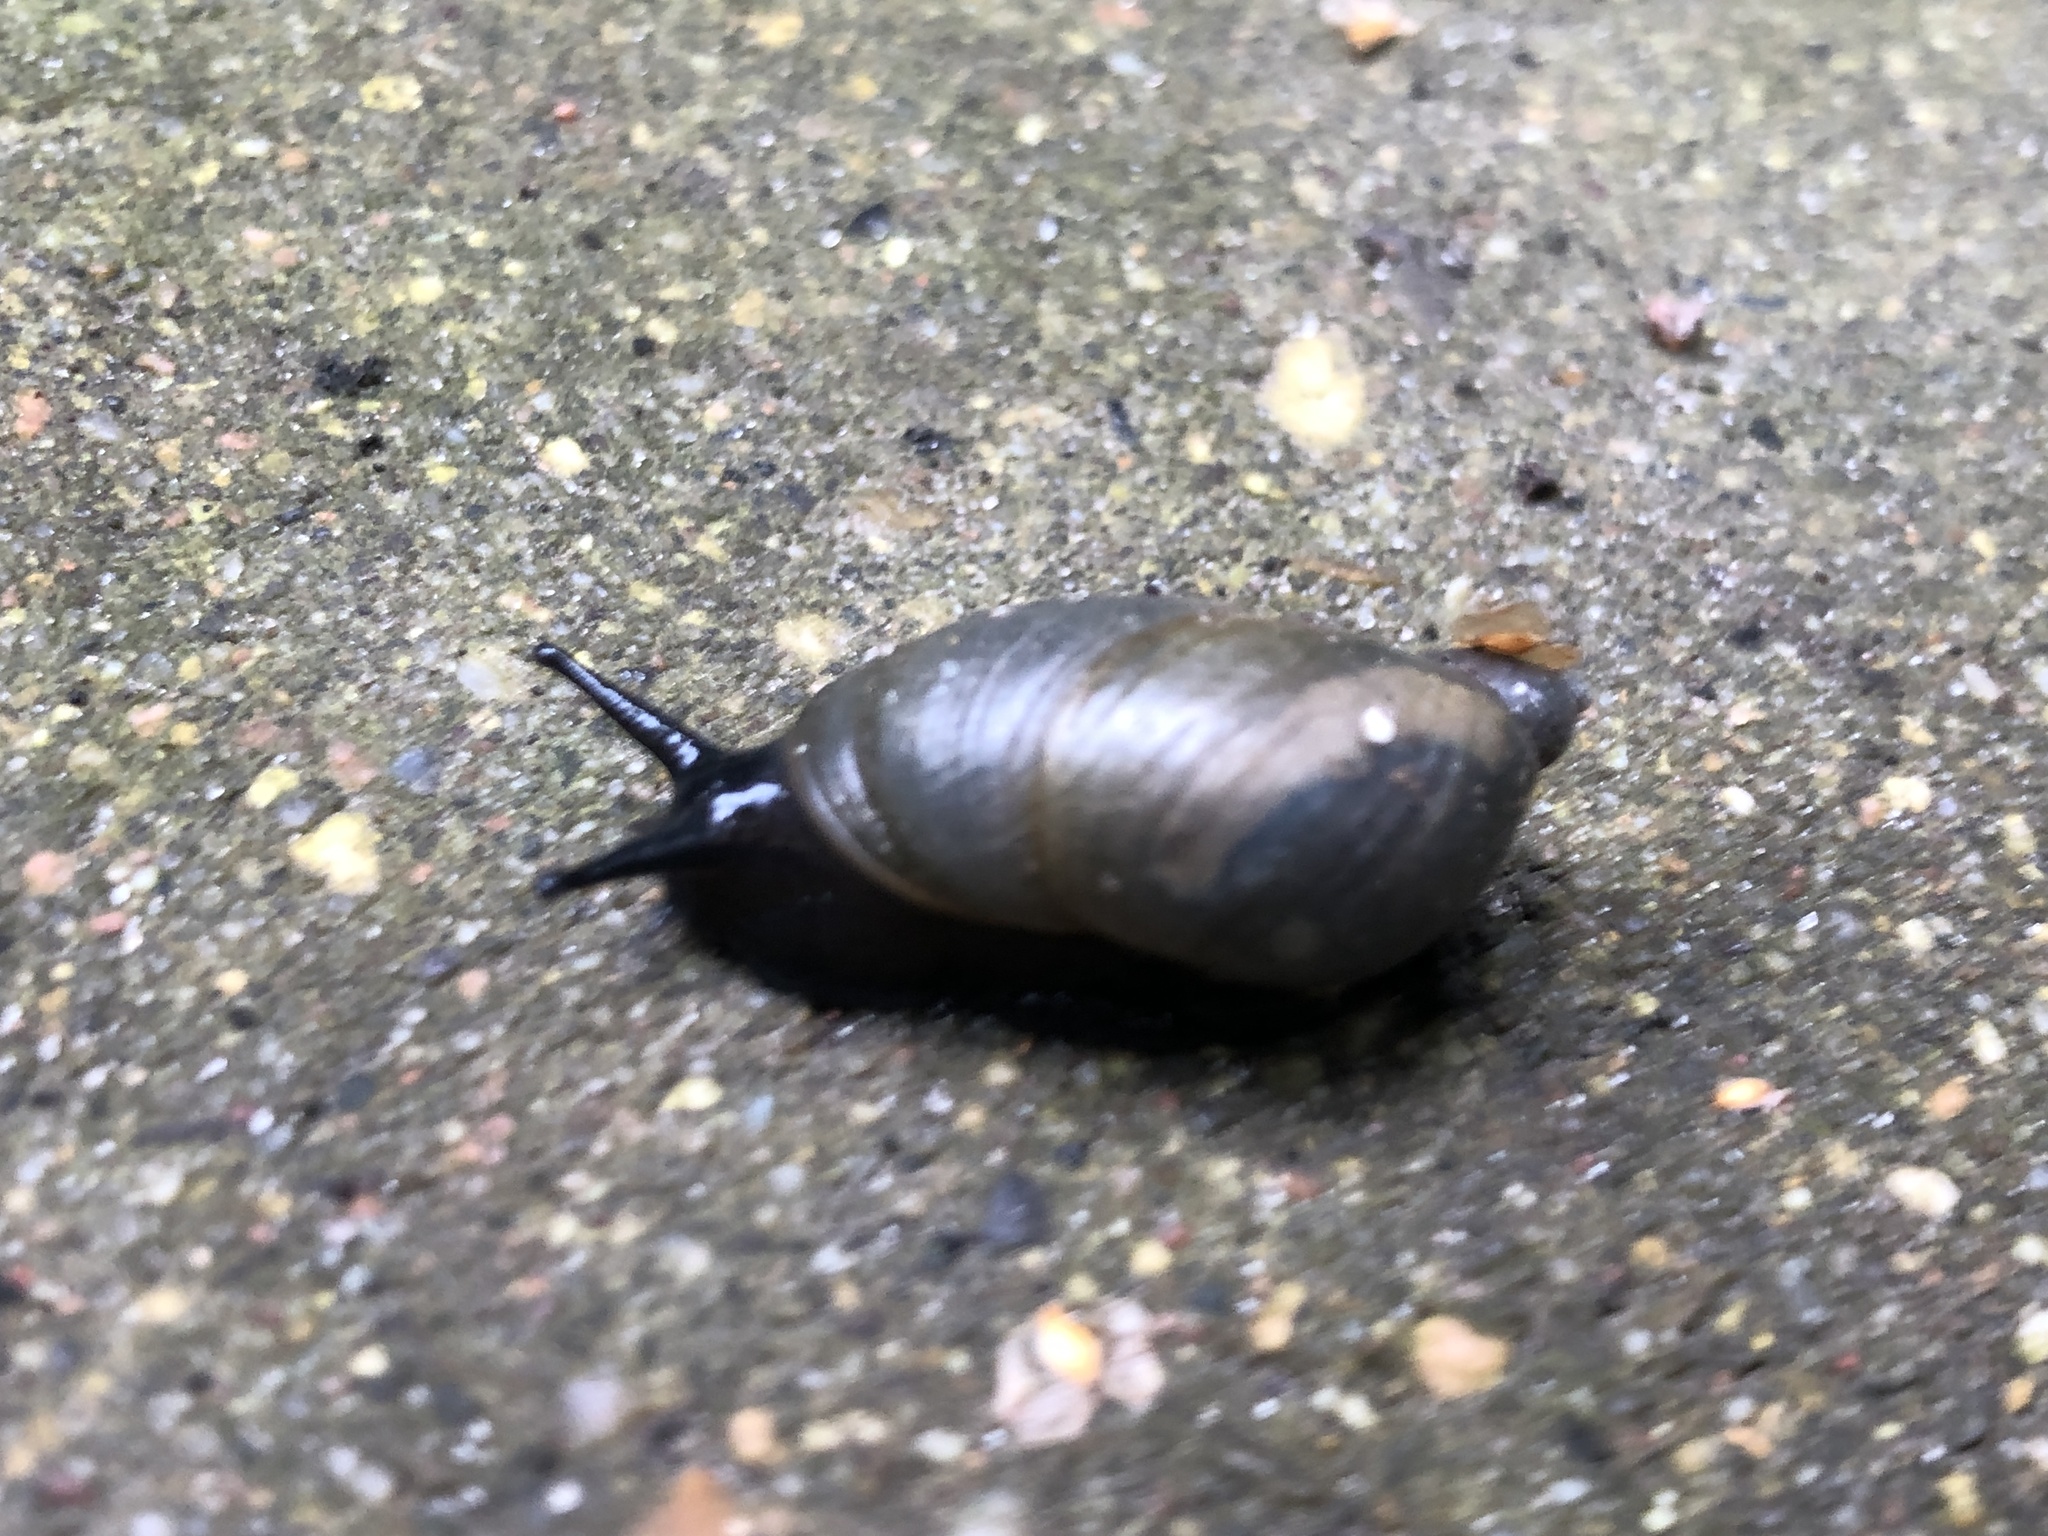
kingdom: Animalia
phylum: Mollusca
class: Gastropoda
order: Stylommatophora
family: Succineidae
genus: Succinea
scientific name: Succinea putris
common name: European ambersnail
